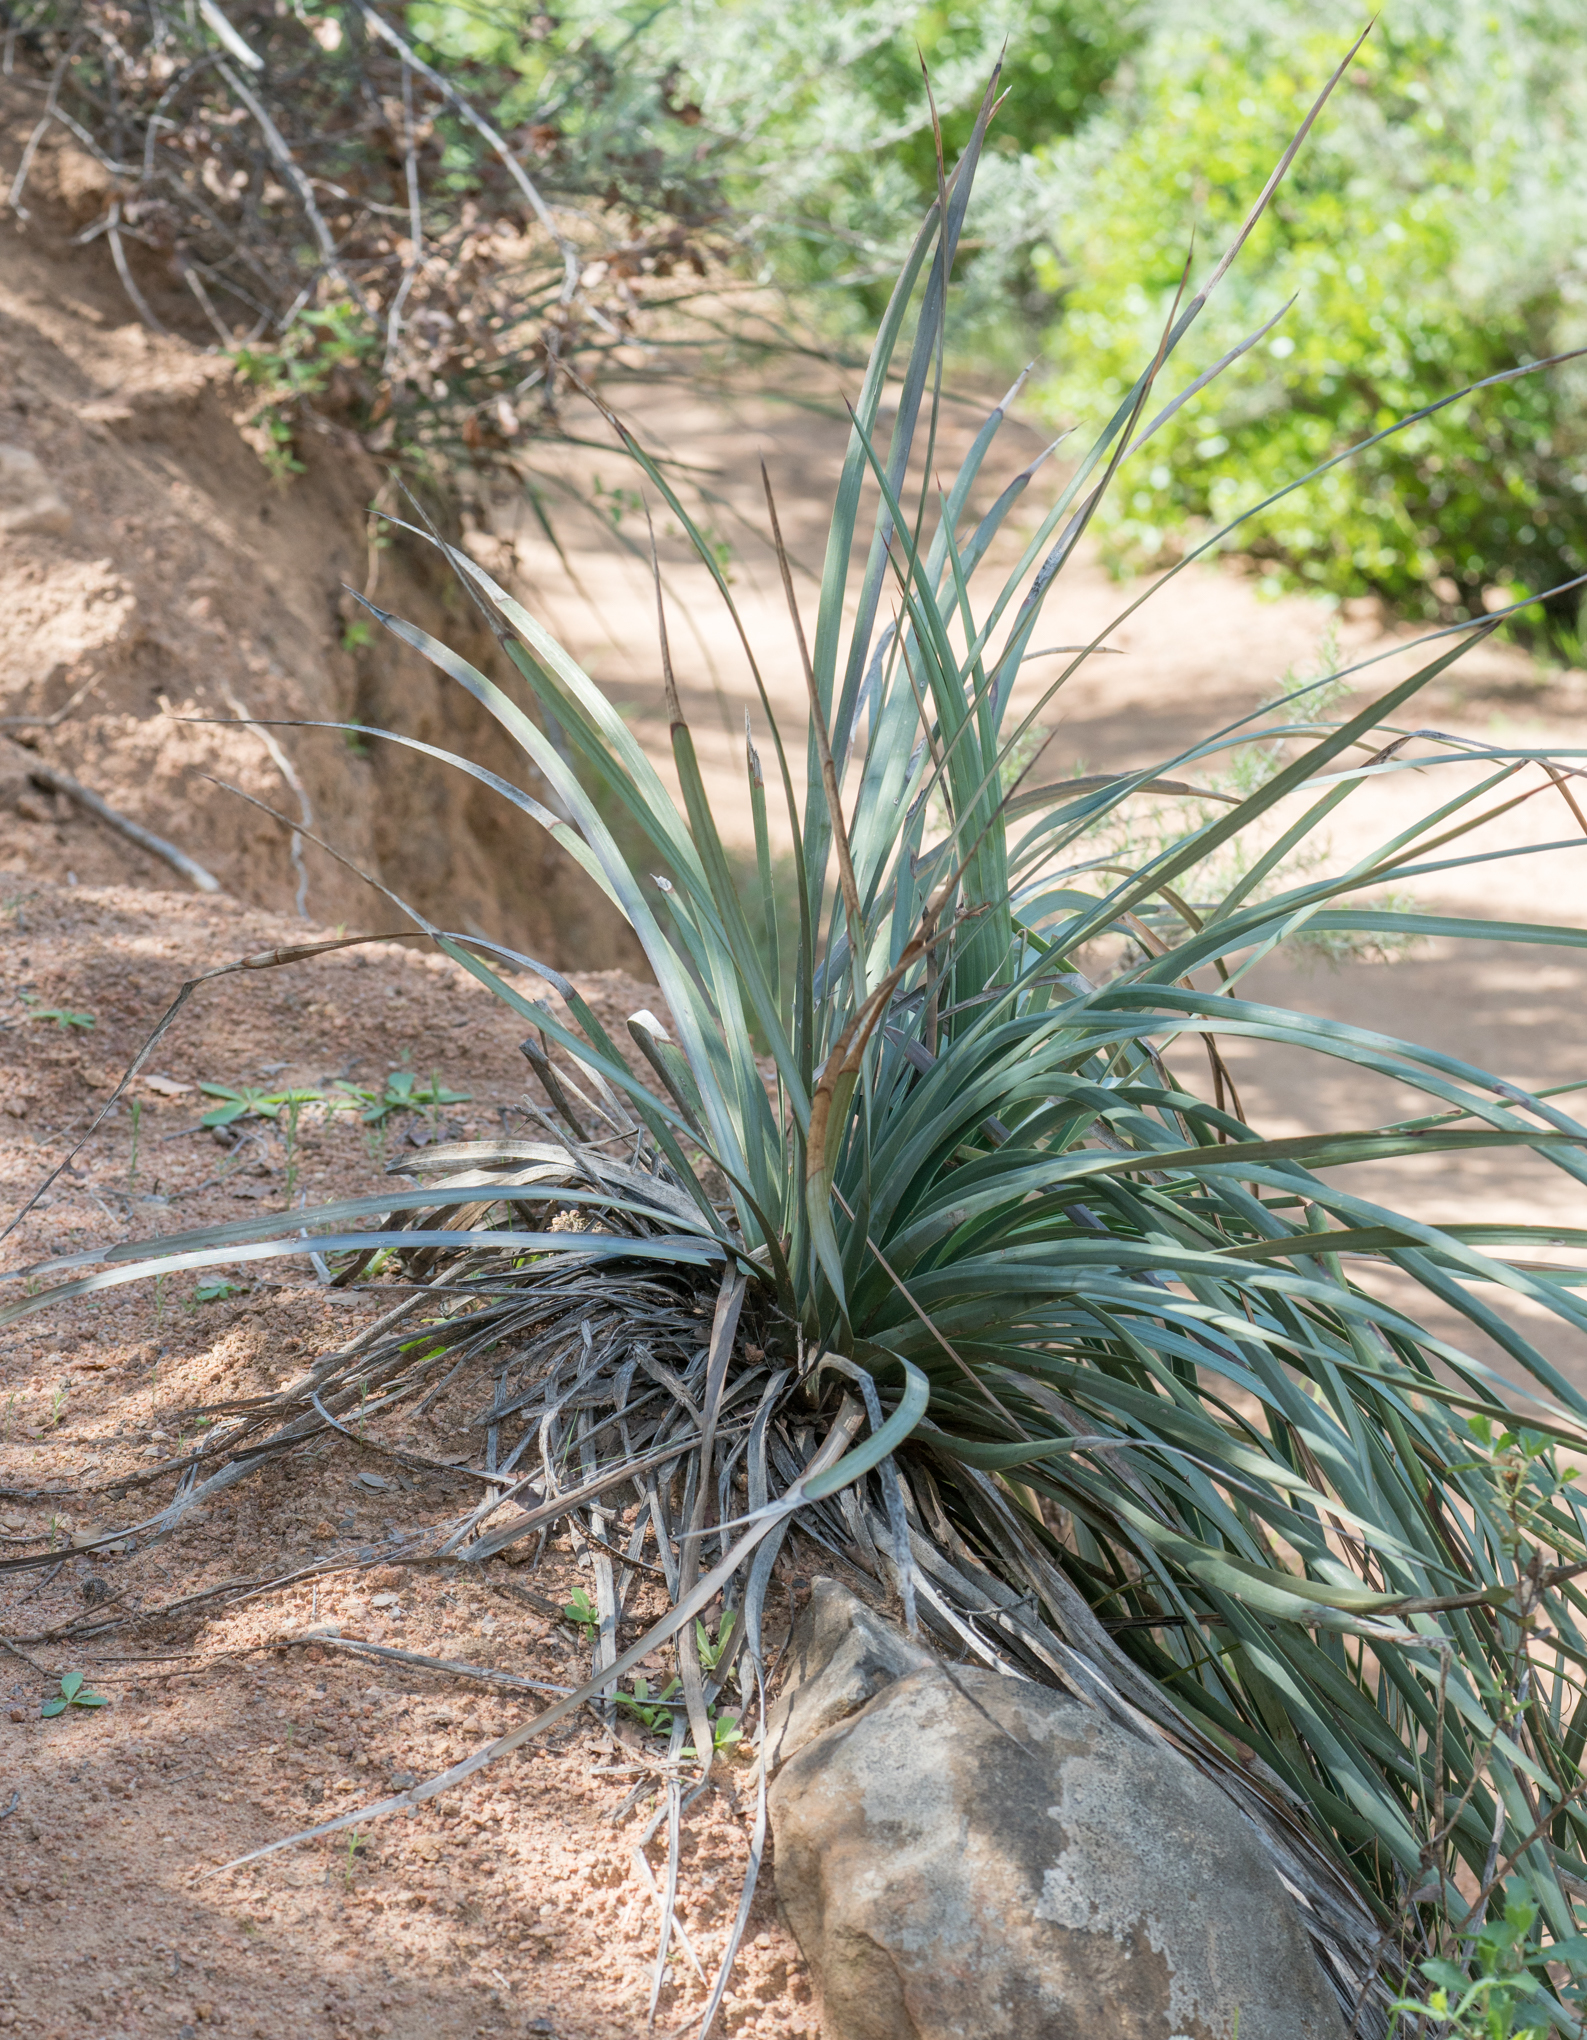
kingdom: Plantae
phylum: Tracheophyta
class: Liliopsida
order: Asparagales
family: Asparagaceae
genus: Hesperoyucca
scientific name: Hesperoyucca whipplei
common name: Our lord's-candle
